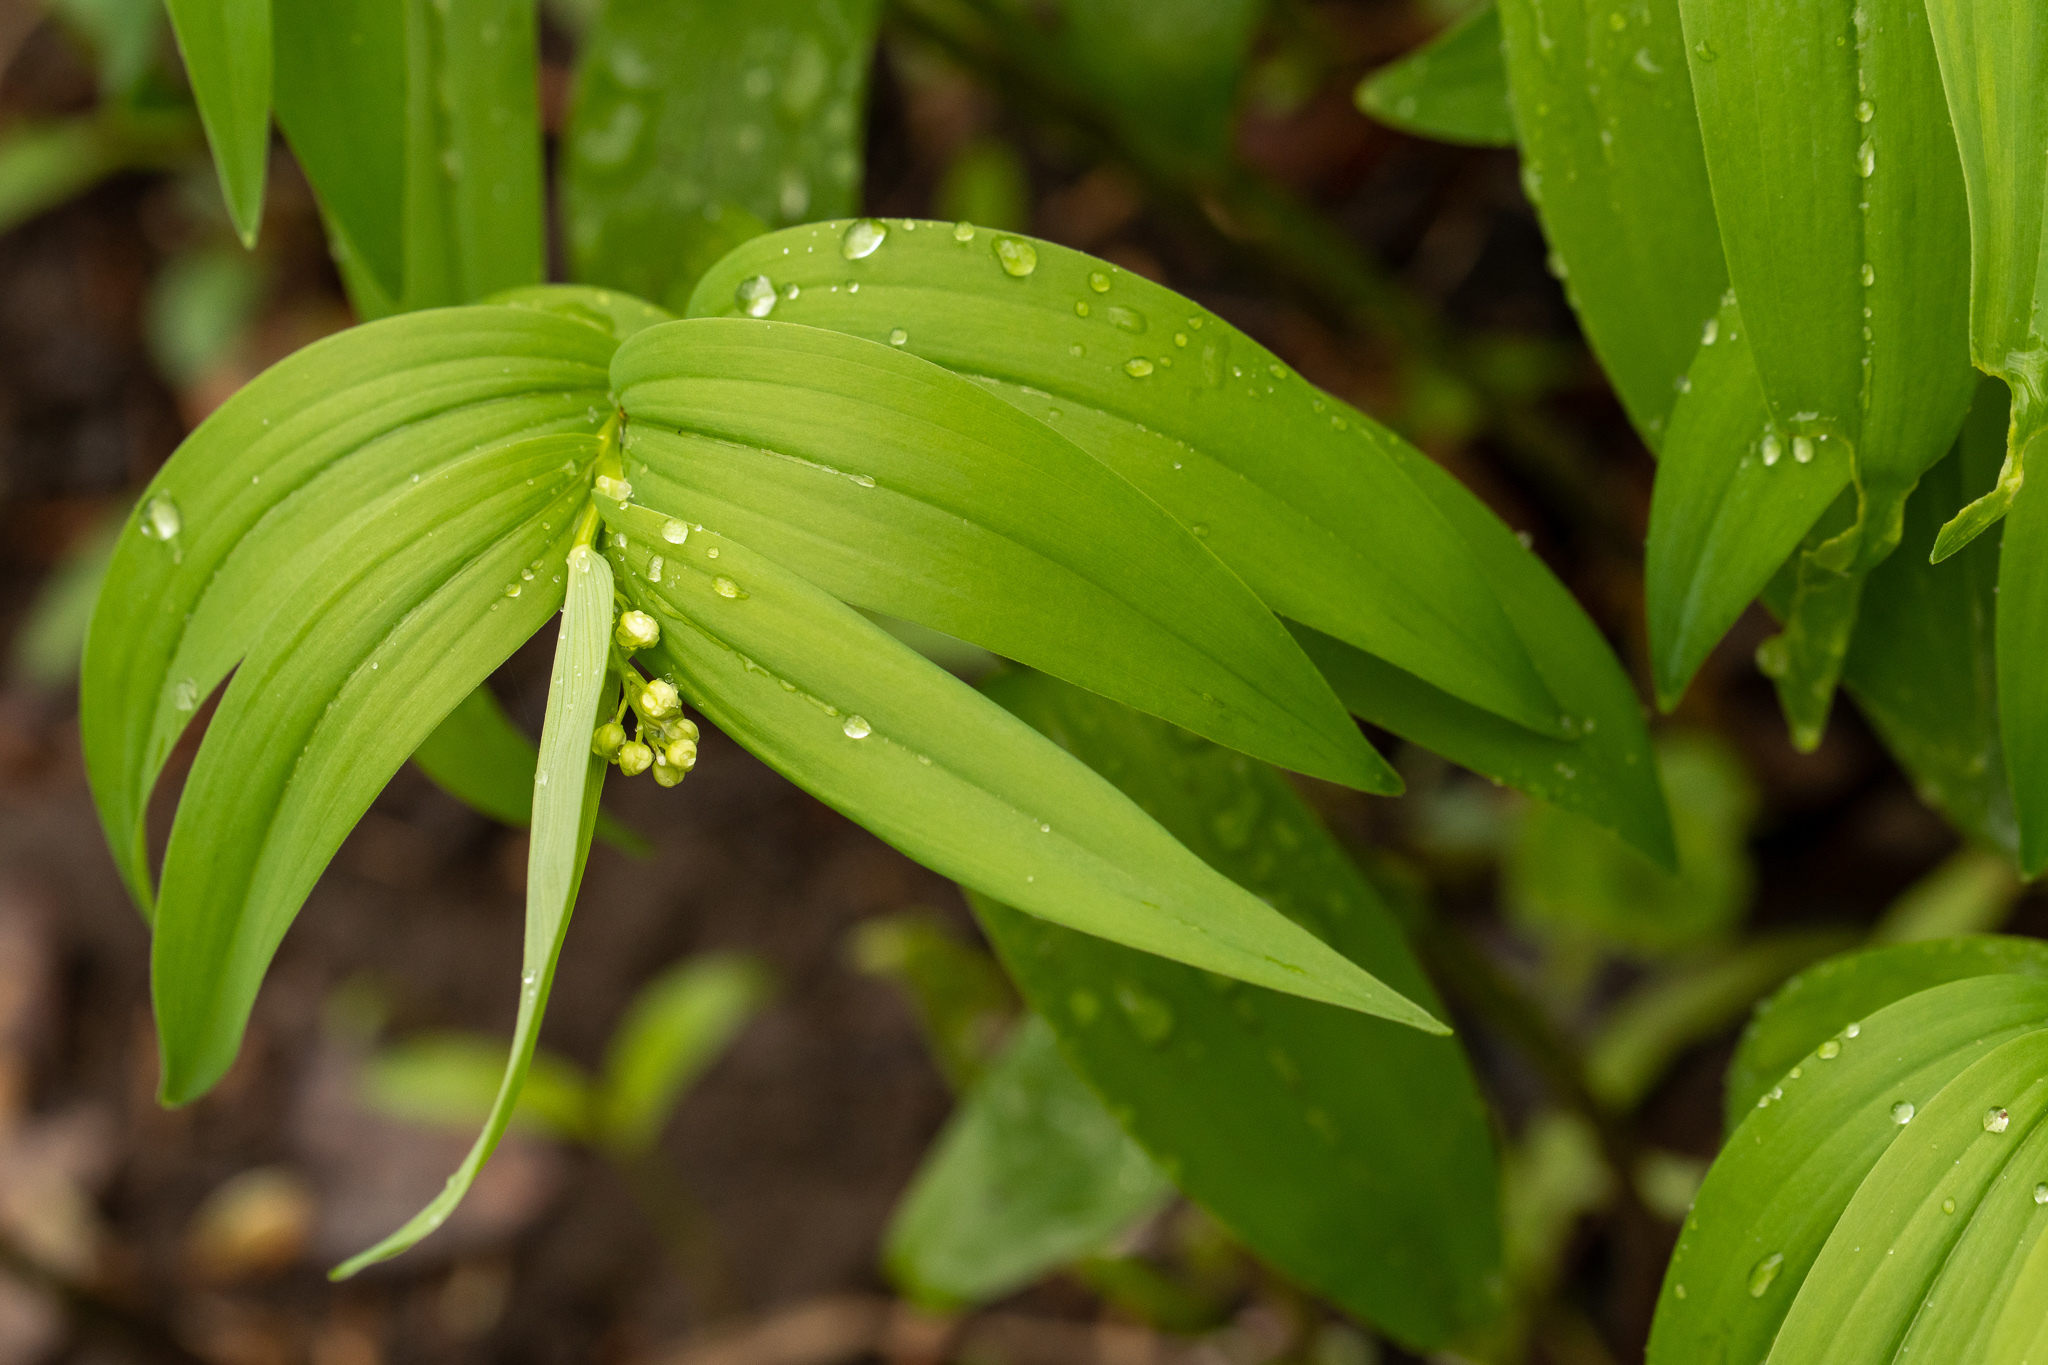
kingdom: Plantae
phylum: Tracheophyta
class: Liliopsida
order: Asparagales
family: Asparagaceae
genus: Maianthemum
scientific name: Maianthemum stellatum
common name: Little false solomon's seal
